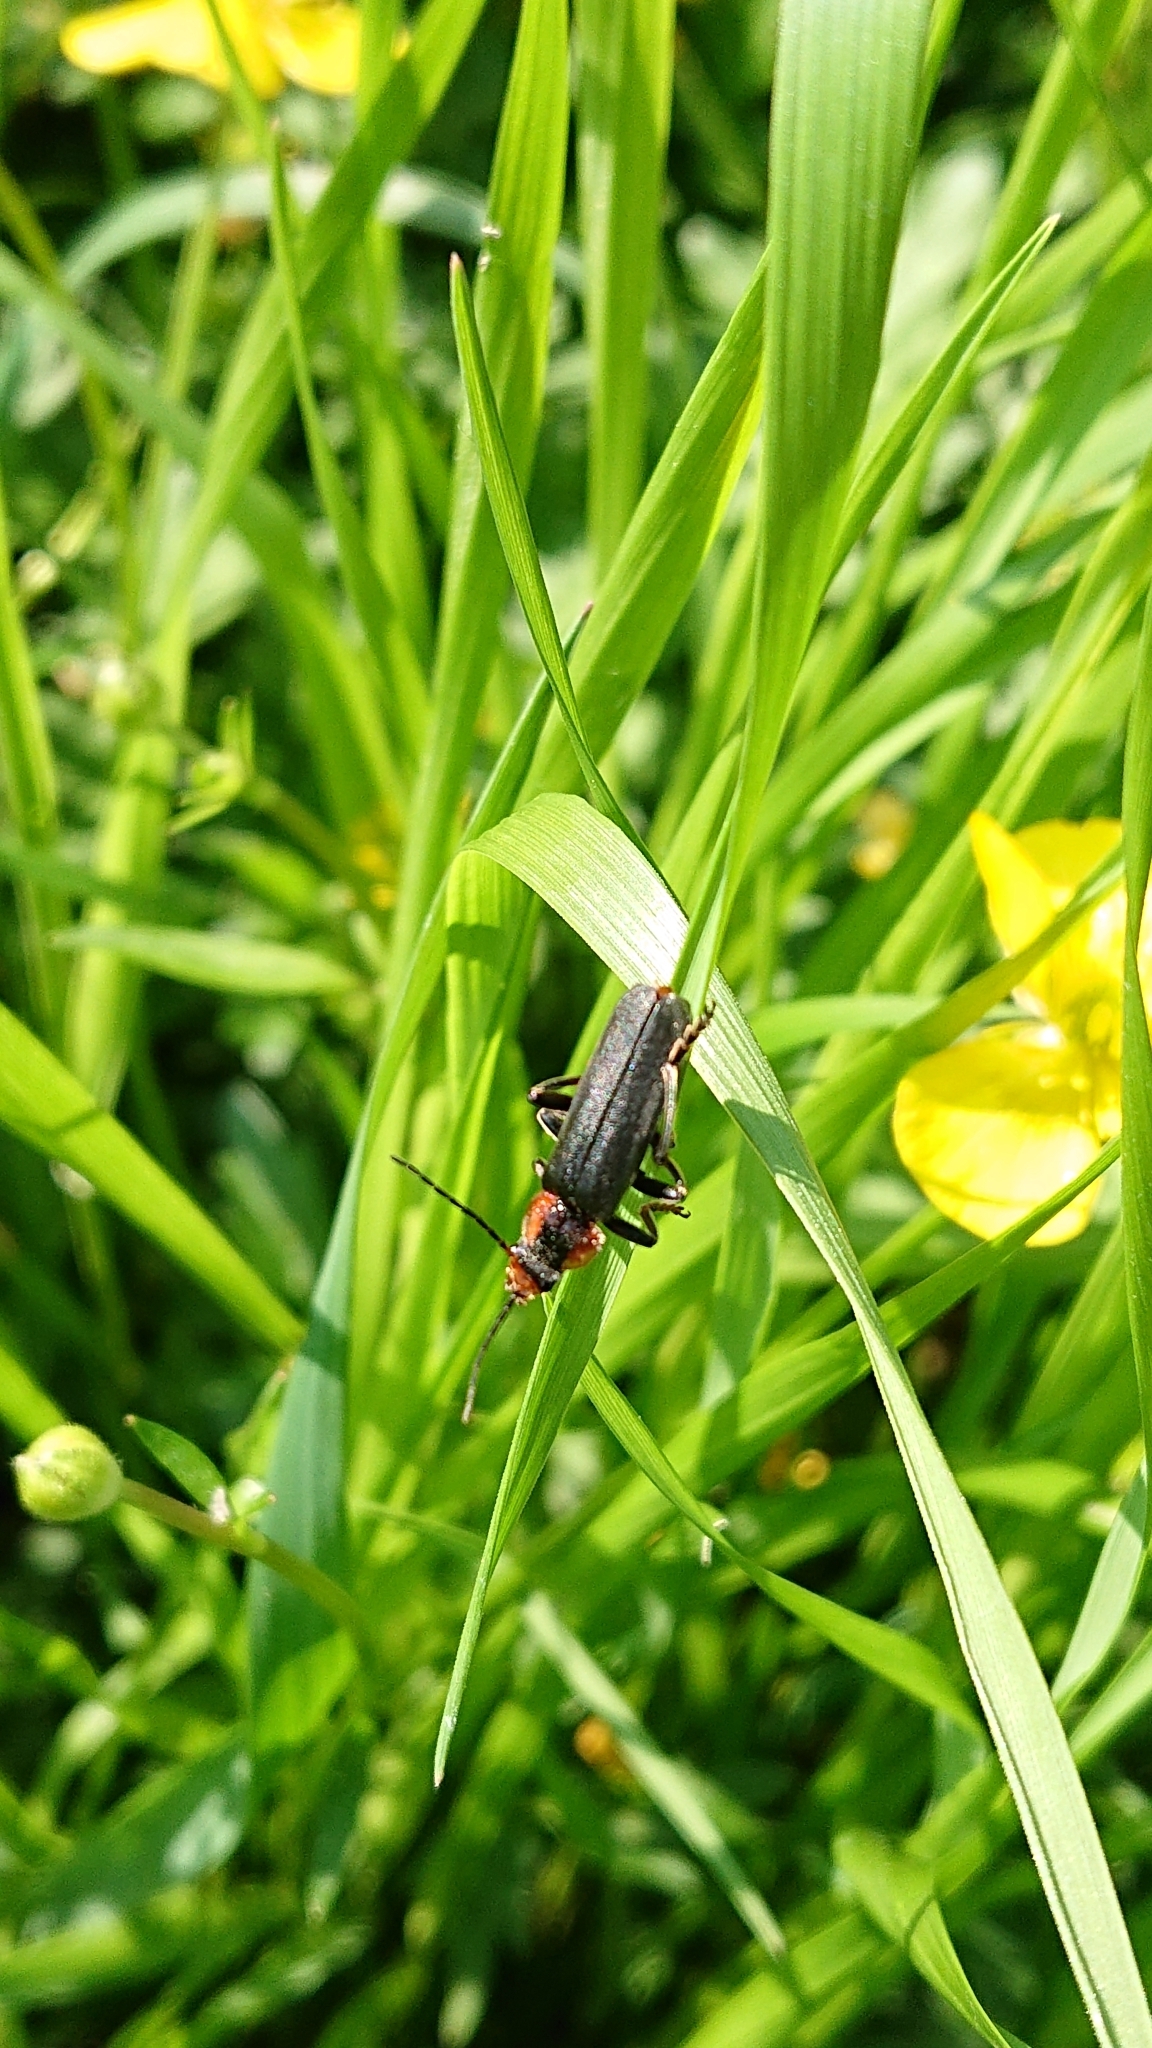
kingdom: Animalia
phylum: Arthropoda
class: Insecta
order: Coleoptera
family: Cantharidae
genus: Cantharis
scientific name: Cantharis fusca
